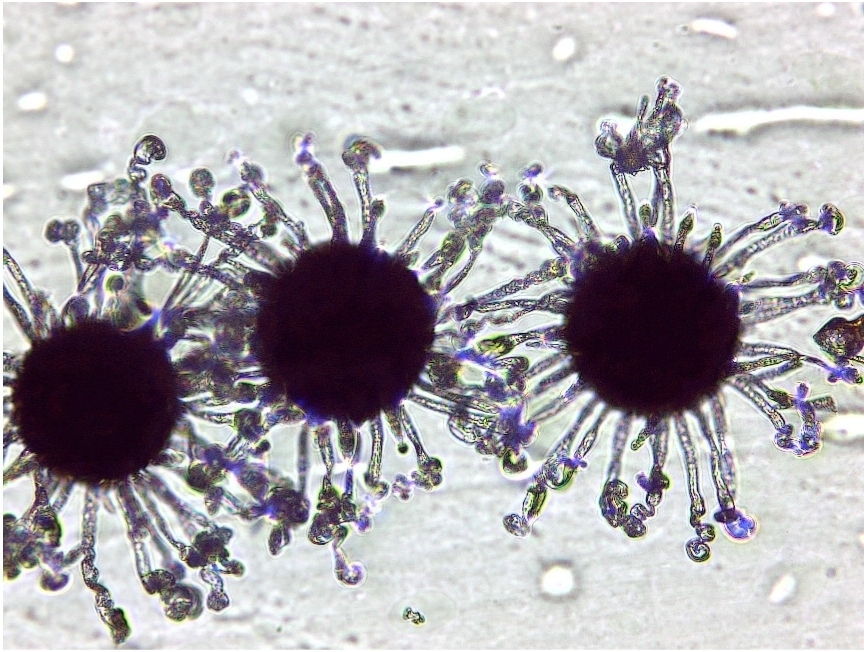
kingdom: Fungi
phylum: Ascomycota
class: Leotiomycetes
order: Helotiales
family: Erysiphaceae
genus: Erysiphe
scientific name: Erysiphe flexuosa
